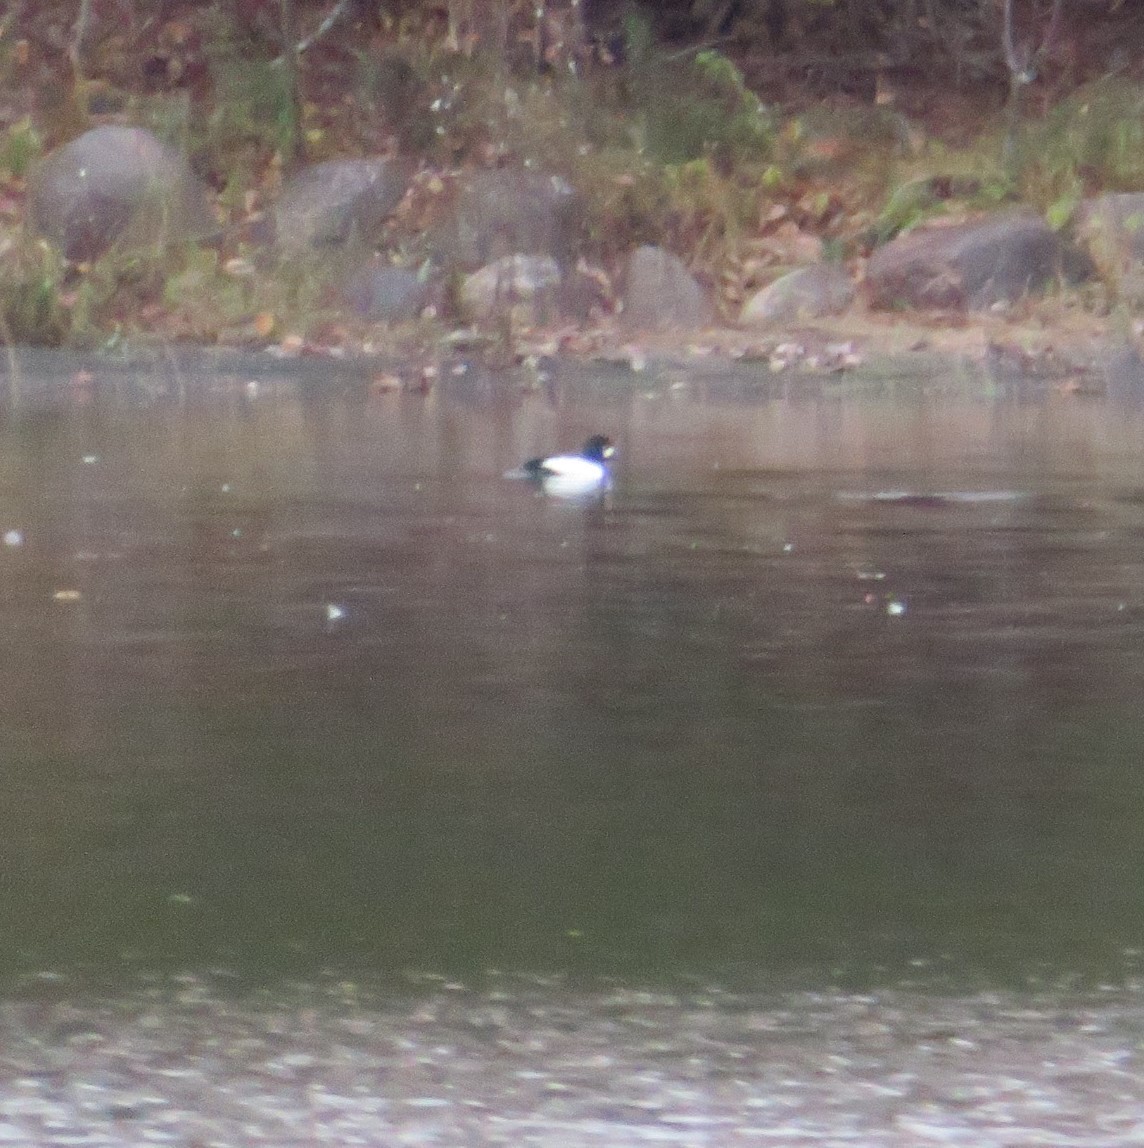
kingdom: Animalia
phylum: Chordata
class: Aves
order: Anseriformes
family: Anatidae
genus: Bucephala
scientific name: Bucephala clangula
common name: Common goldeneye
